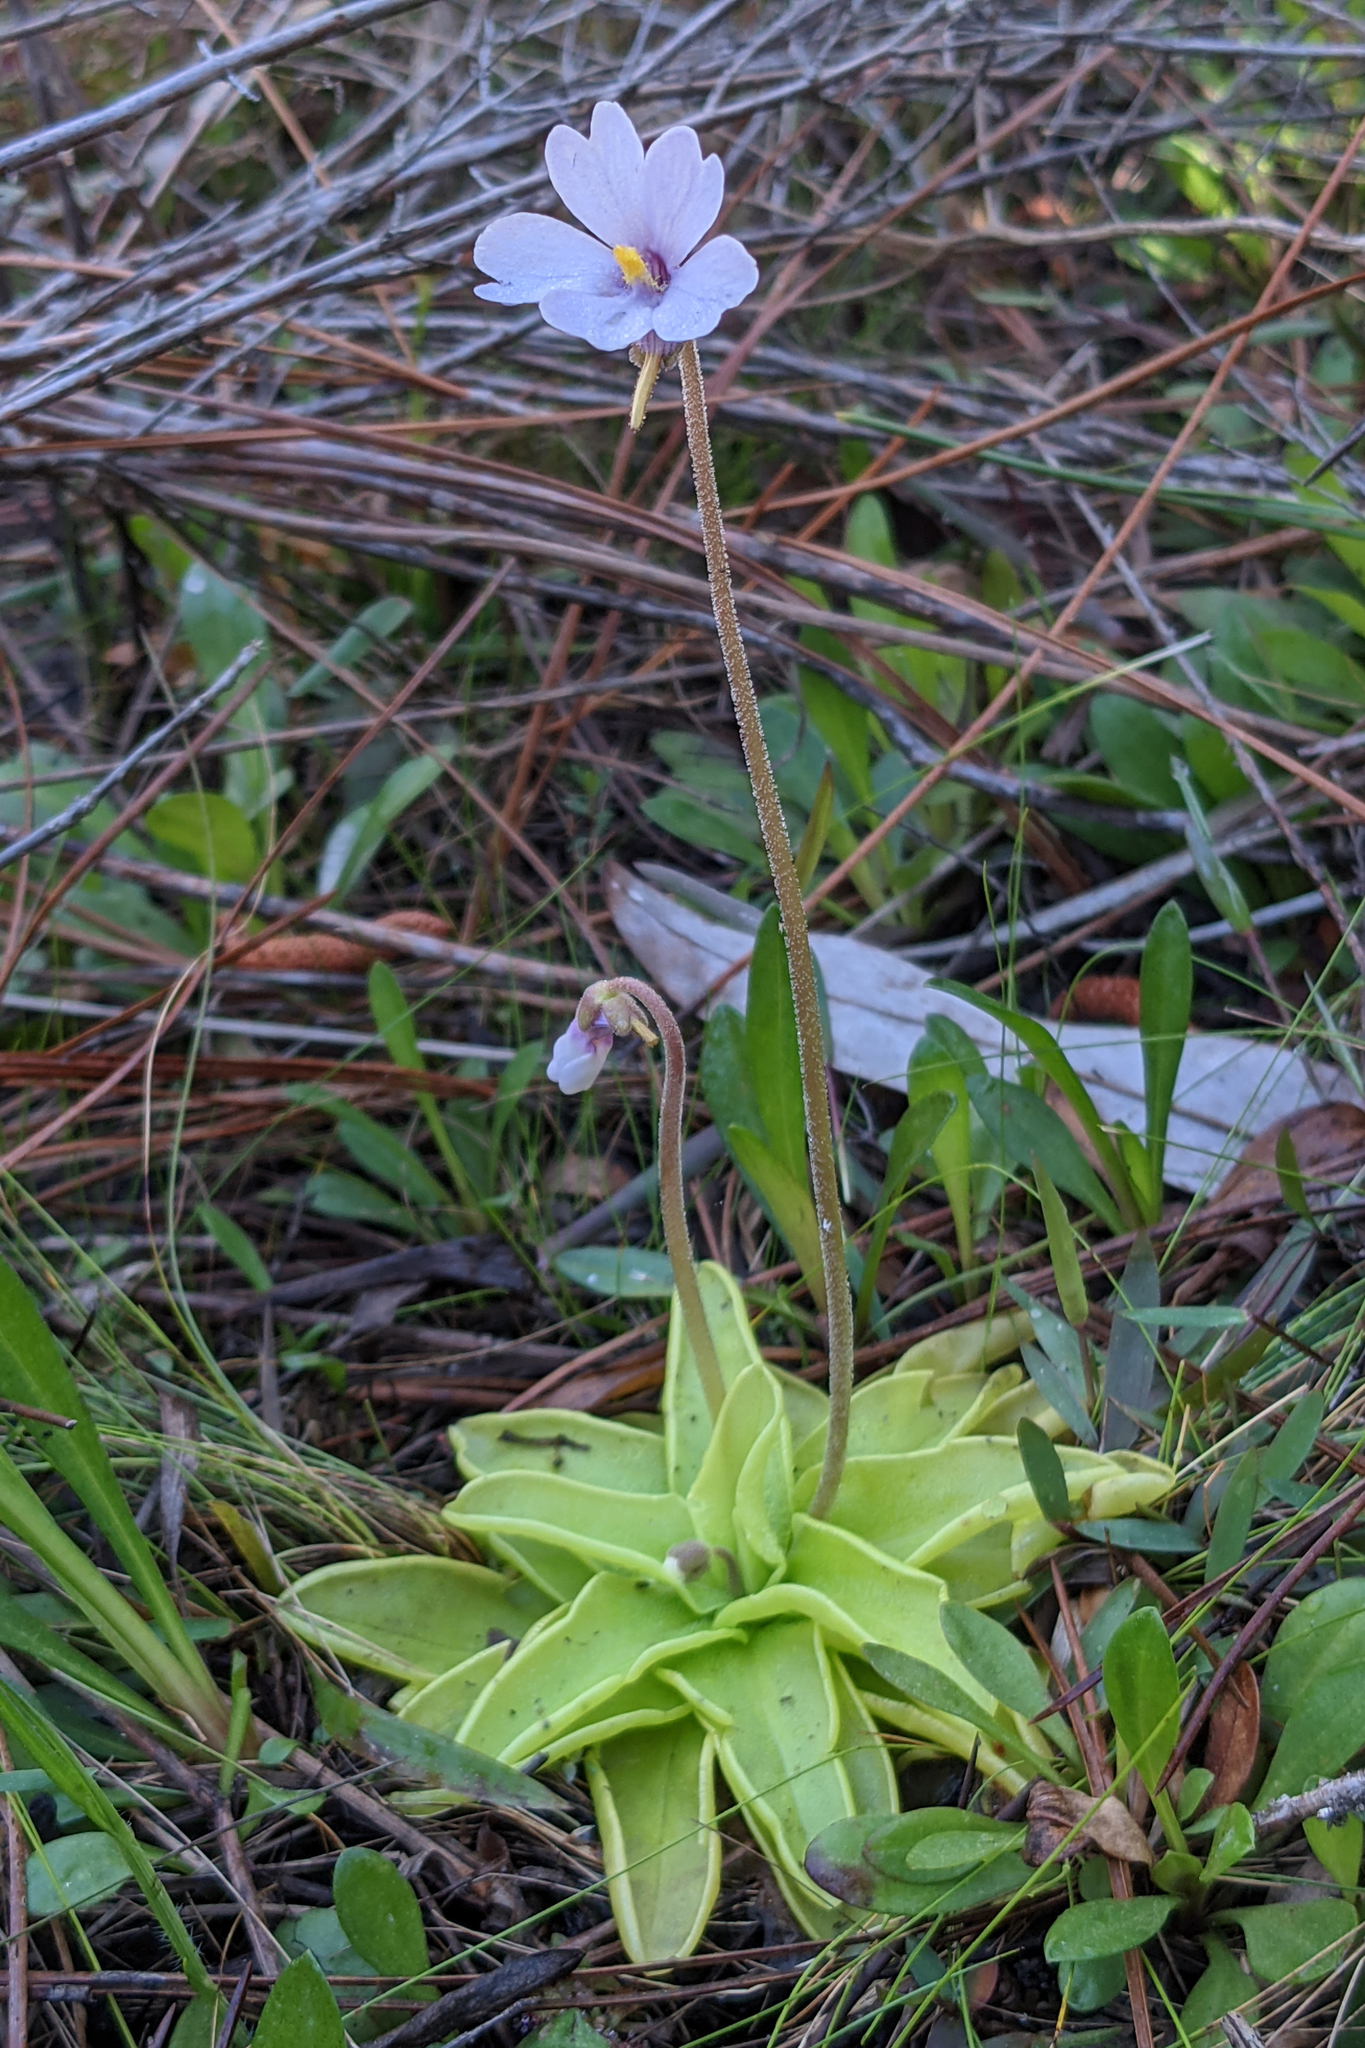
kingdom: Plantae
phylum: Tracheophyta
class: Magnoliopsida
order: Lamiales
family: Lentibulariaceae
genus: Pinguicula
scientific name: Pinguicula ionantha
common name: Godfrey's butterwort
